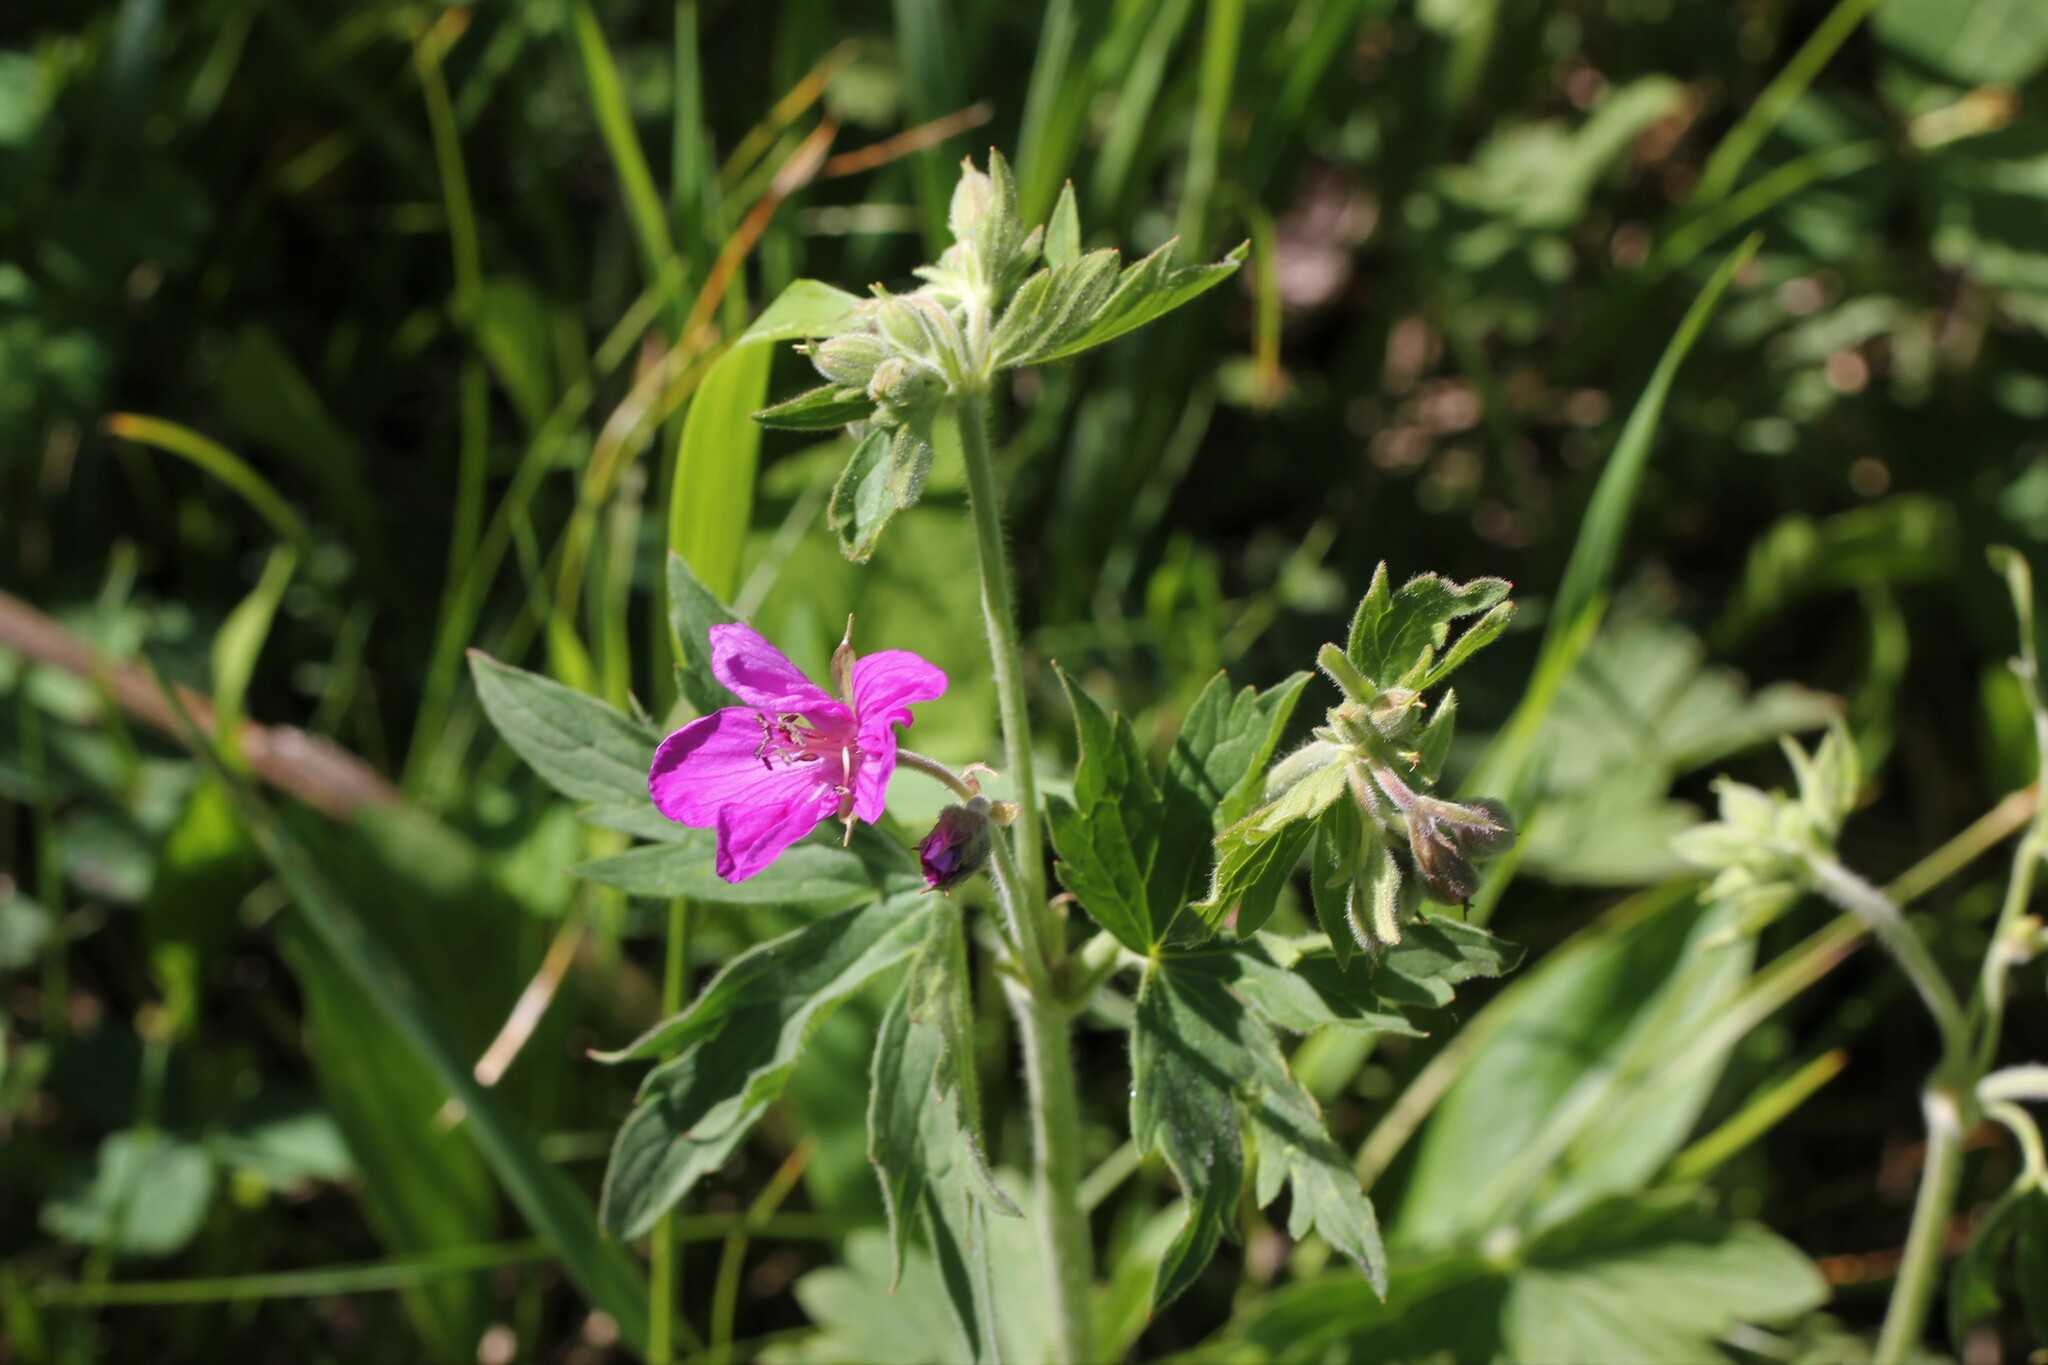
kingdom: Plantae
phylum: Tracheophyta
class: Magnoliopsida
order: Geraniales
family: Geraniaceae
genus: Geranium
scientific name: Geranium viscosissimum
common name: Purple geranium
